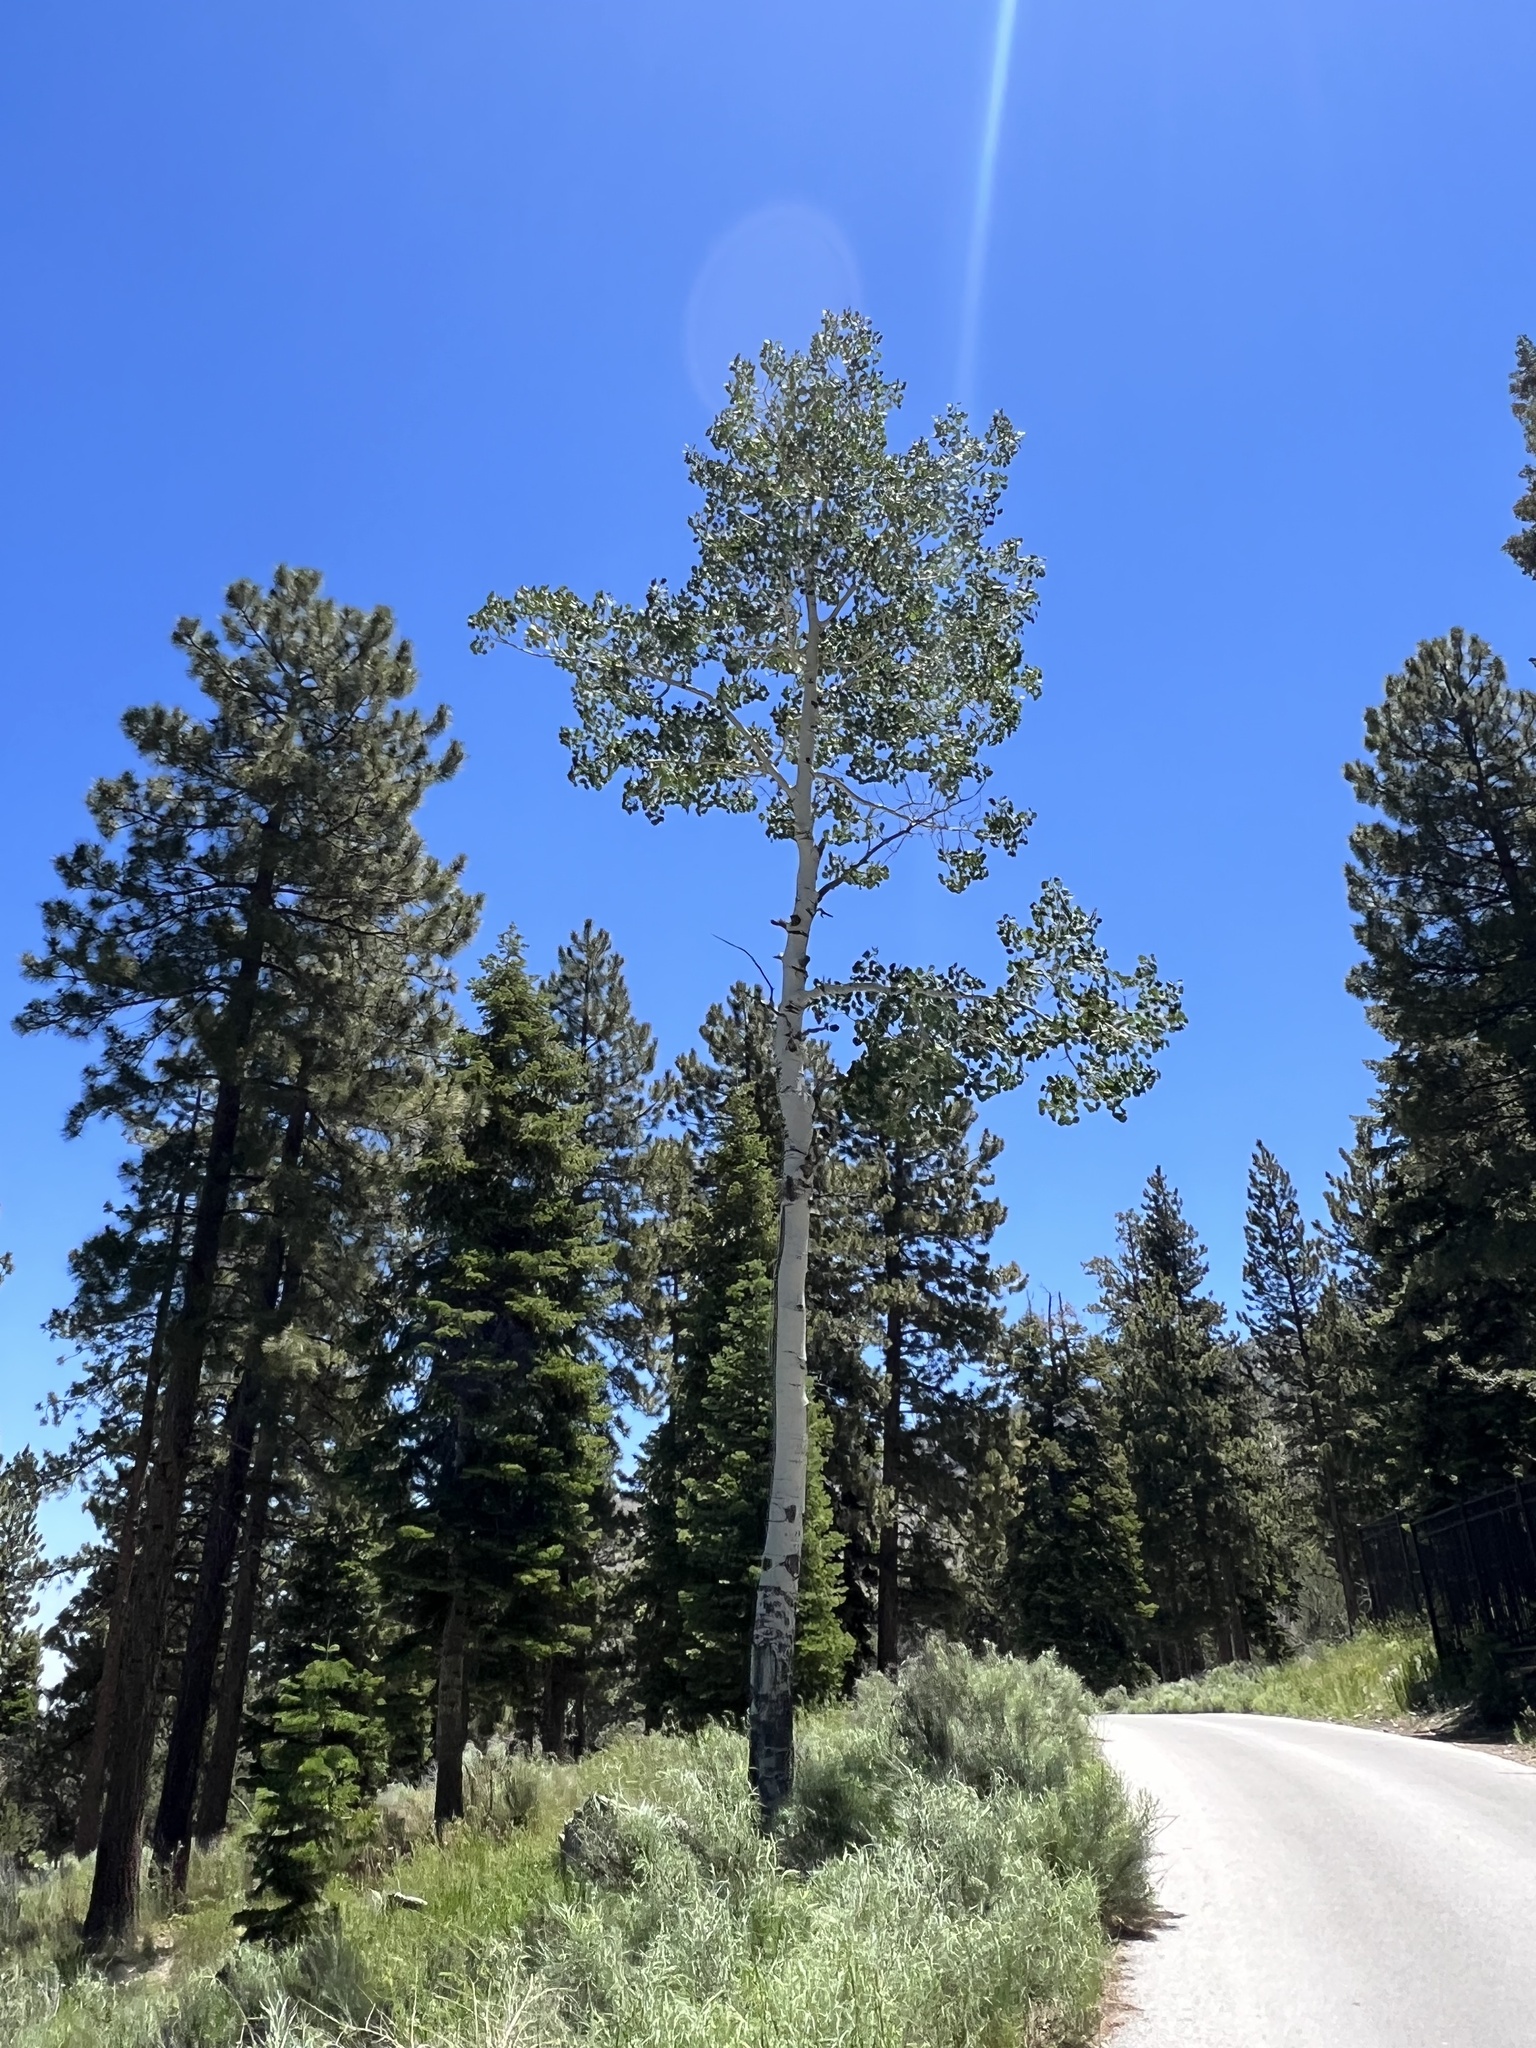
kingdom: Plantae
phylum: Tracheophyta
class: Magnoliopsida
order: Malpighiales
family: Salicaceae
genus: Populus
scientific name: Populus tremuloides
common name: Quaking aspen
